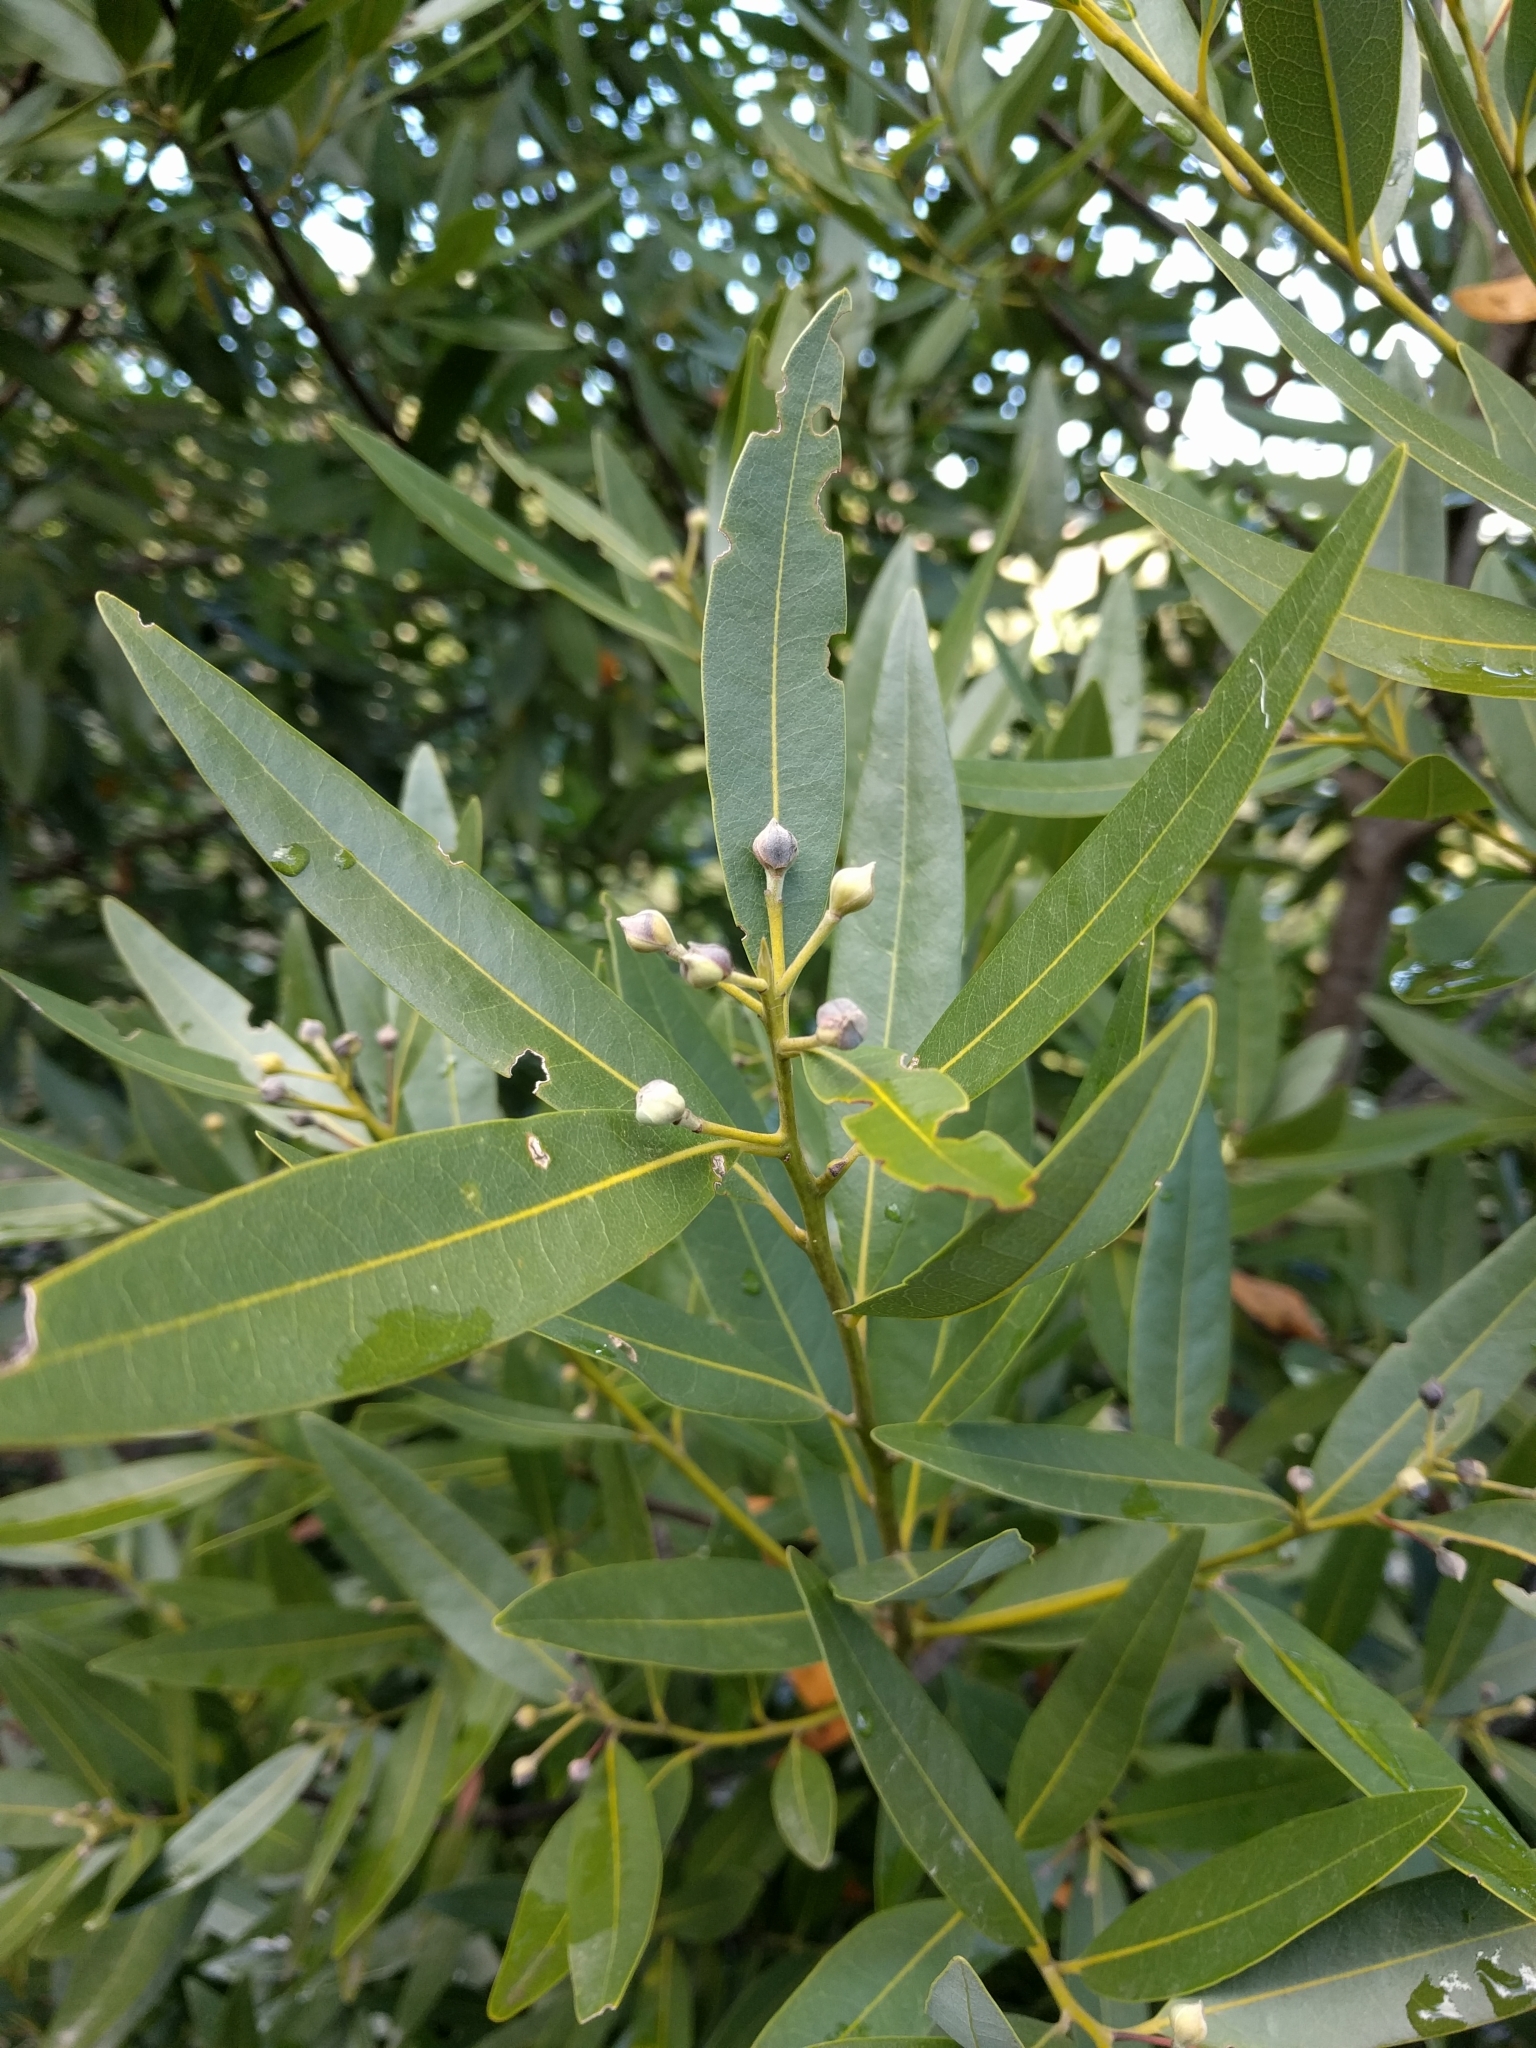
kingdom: Plantae
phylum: Tracheophyta
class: Magnoliopsida
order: Laurales
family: Lauraceae
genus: Umbellularia
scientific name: Umbellularia californica
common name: California bay
